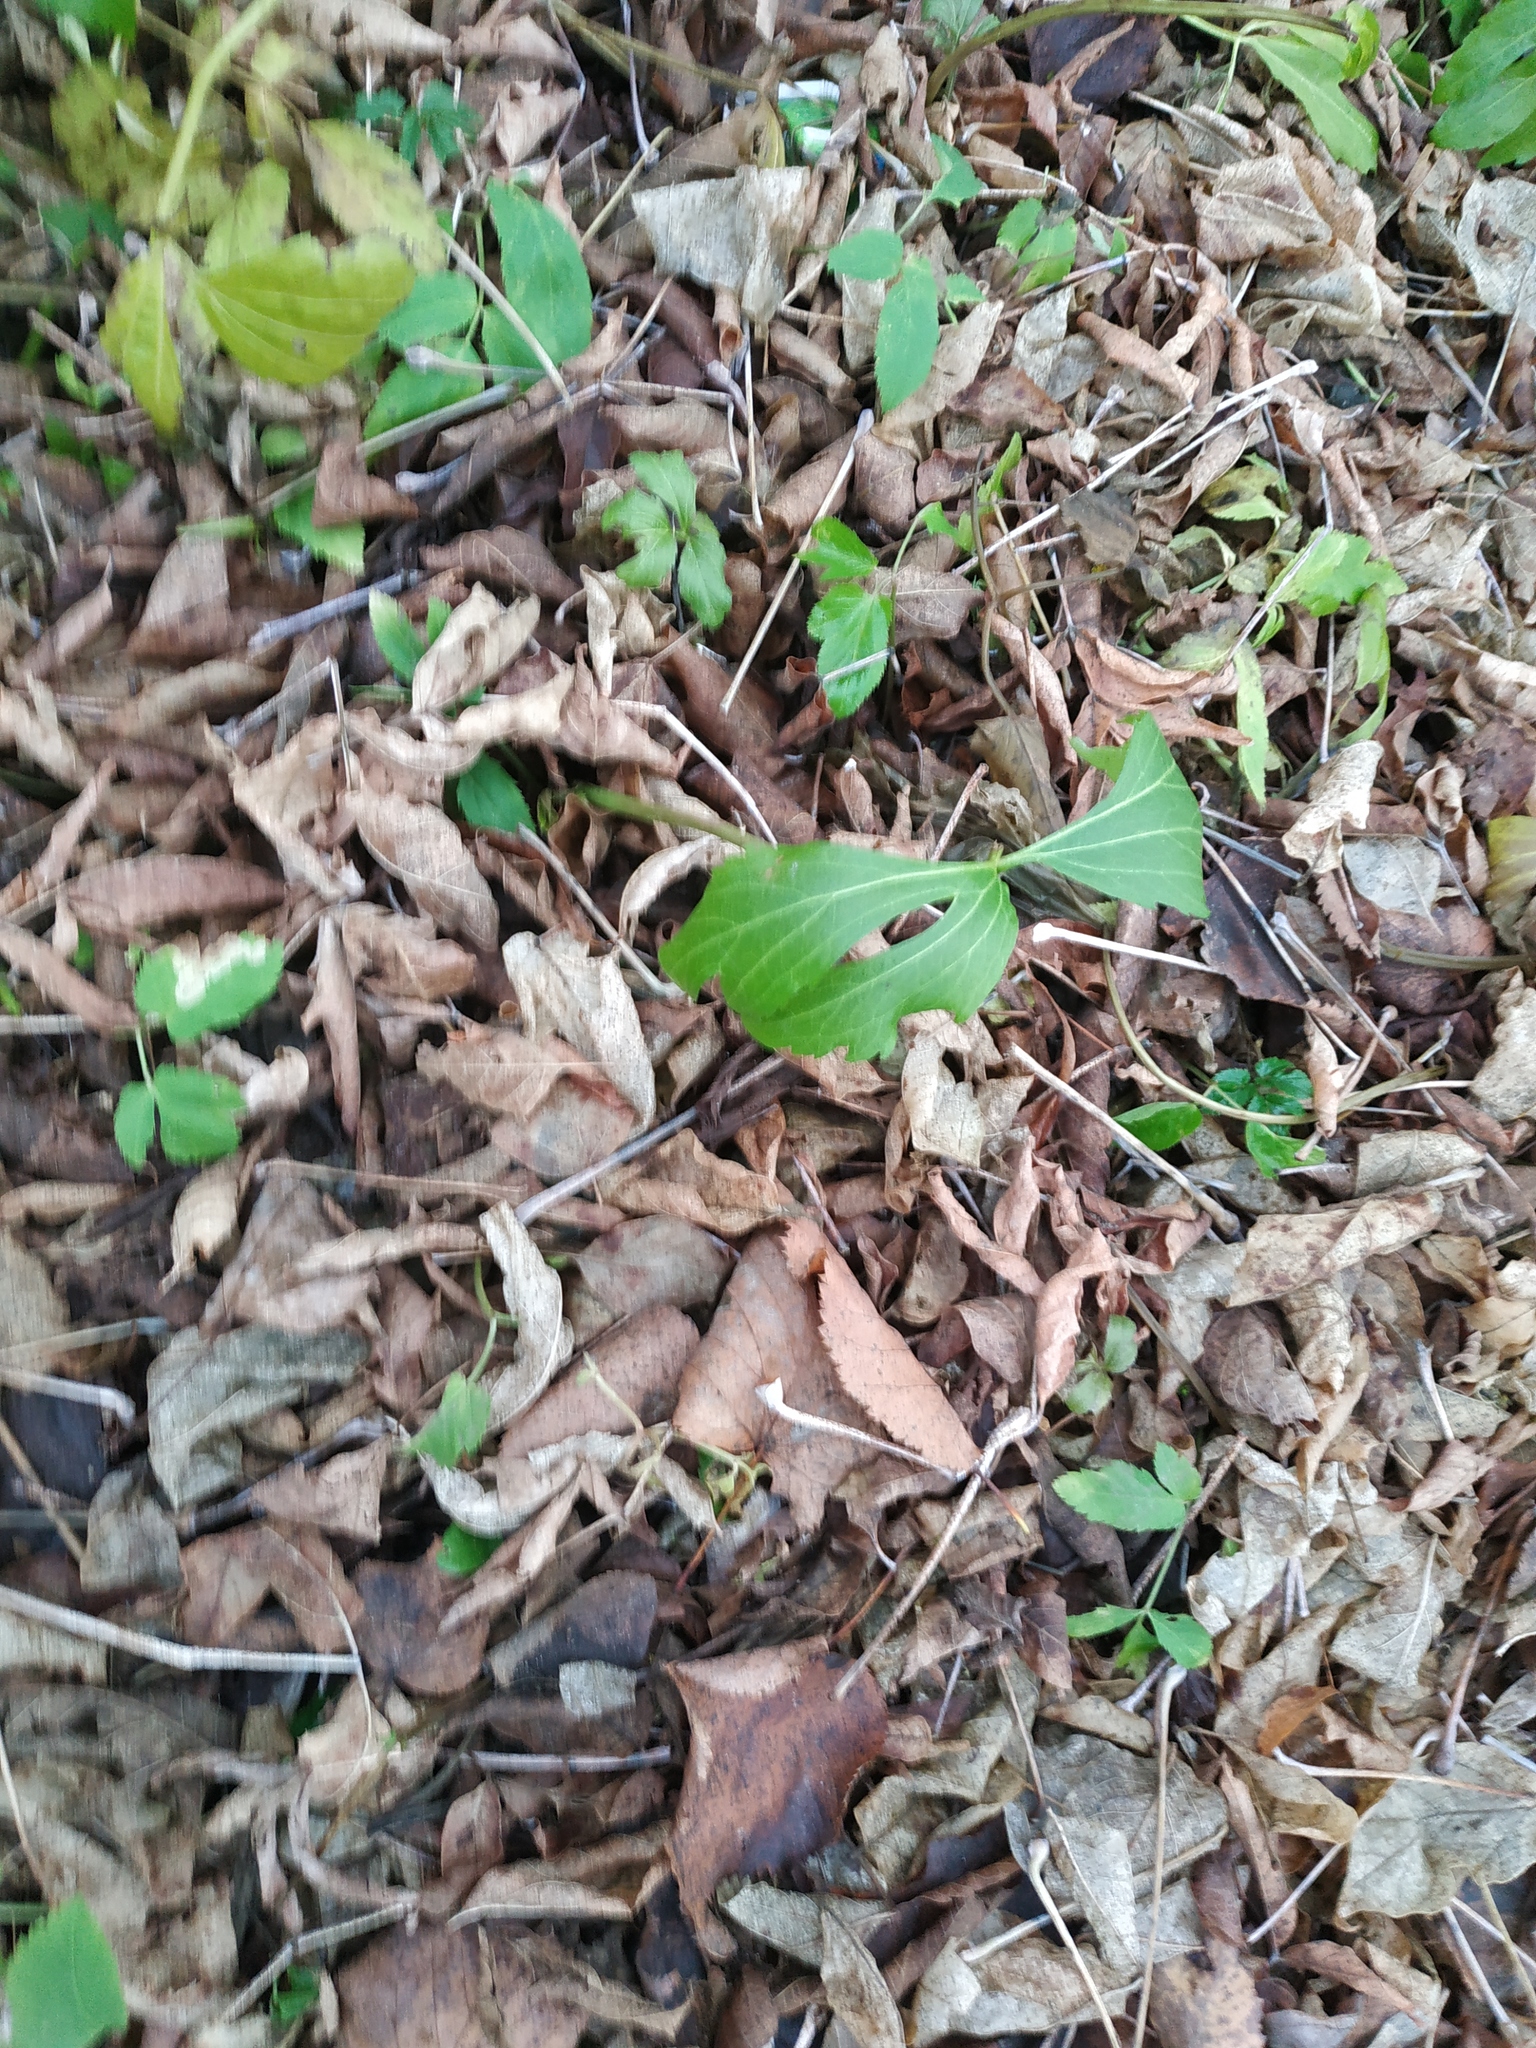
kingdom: Plantae
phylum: Tracheophyta
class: Magnoliopsida
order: Asterales
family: Asteraceae
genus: Rudbeckia
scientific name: Rudbeckia laciniata
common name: Coneflower
